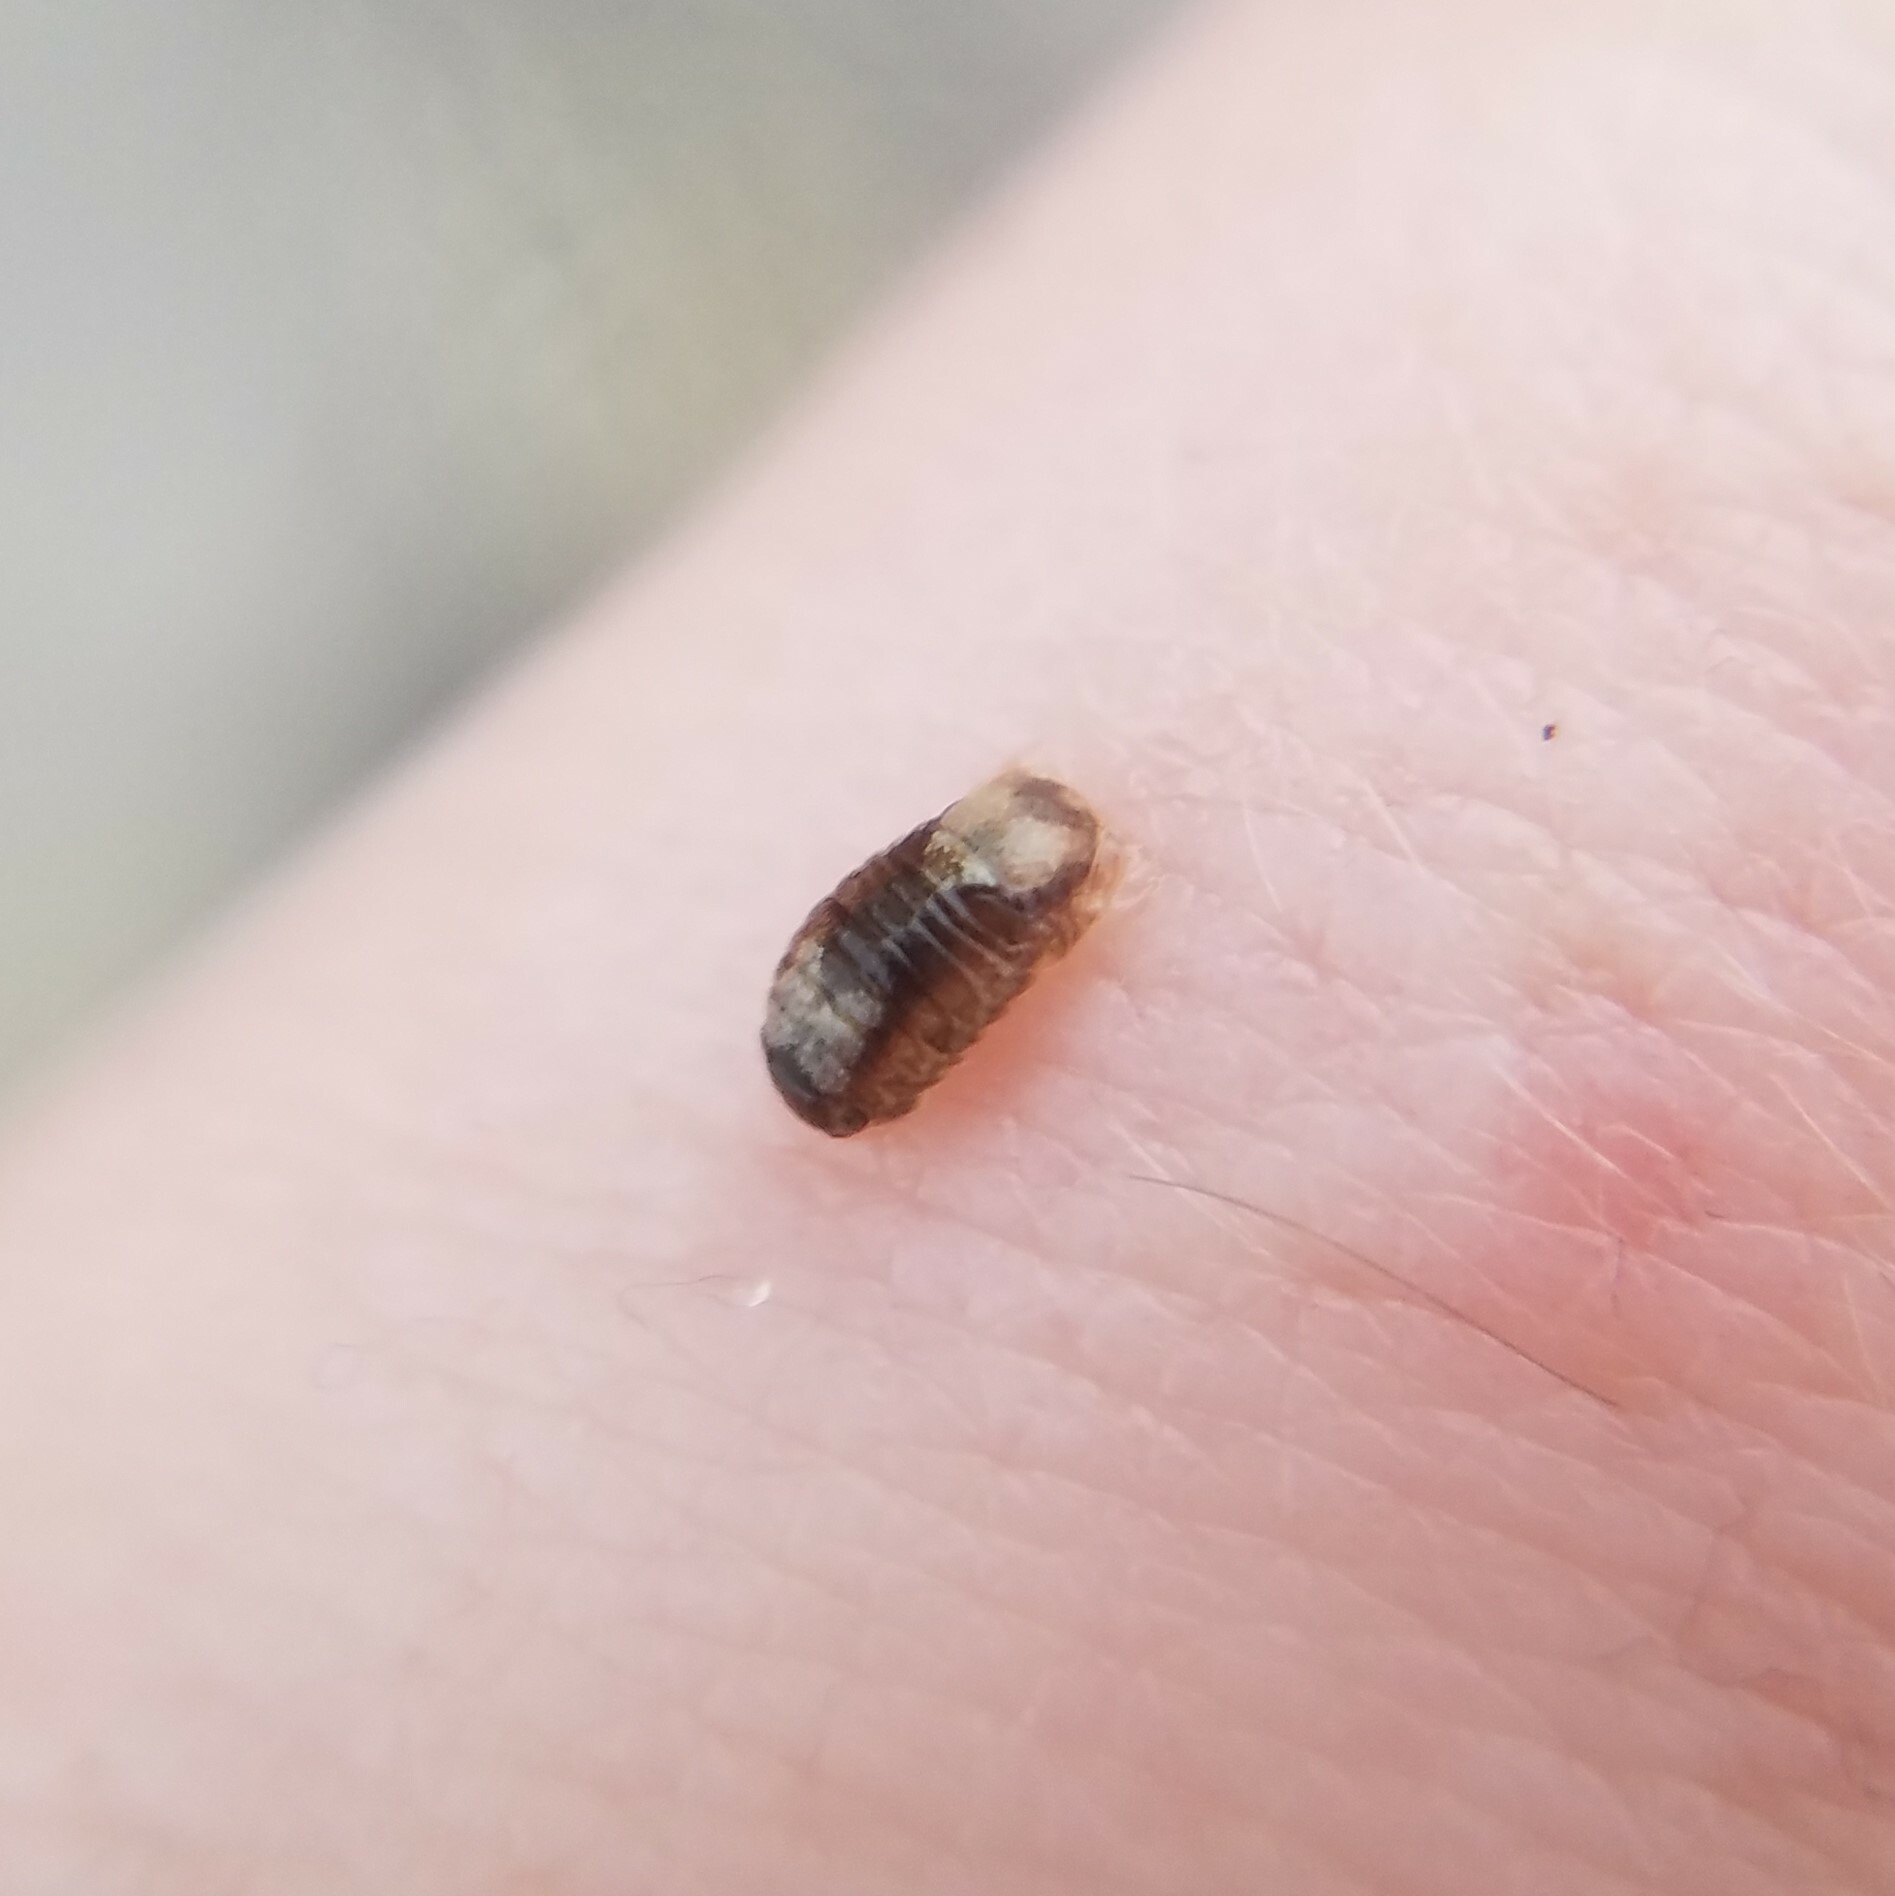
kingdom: Animalia
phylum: Arthropoda
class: Malacostraca
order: Isopoda
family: Sphaeromatidae
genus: Exosphaeroma
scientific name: Exosphaeroma diminutum
